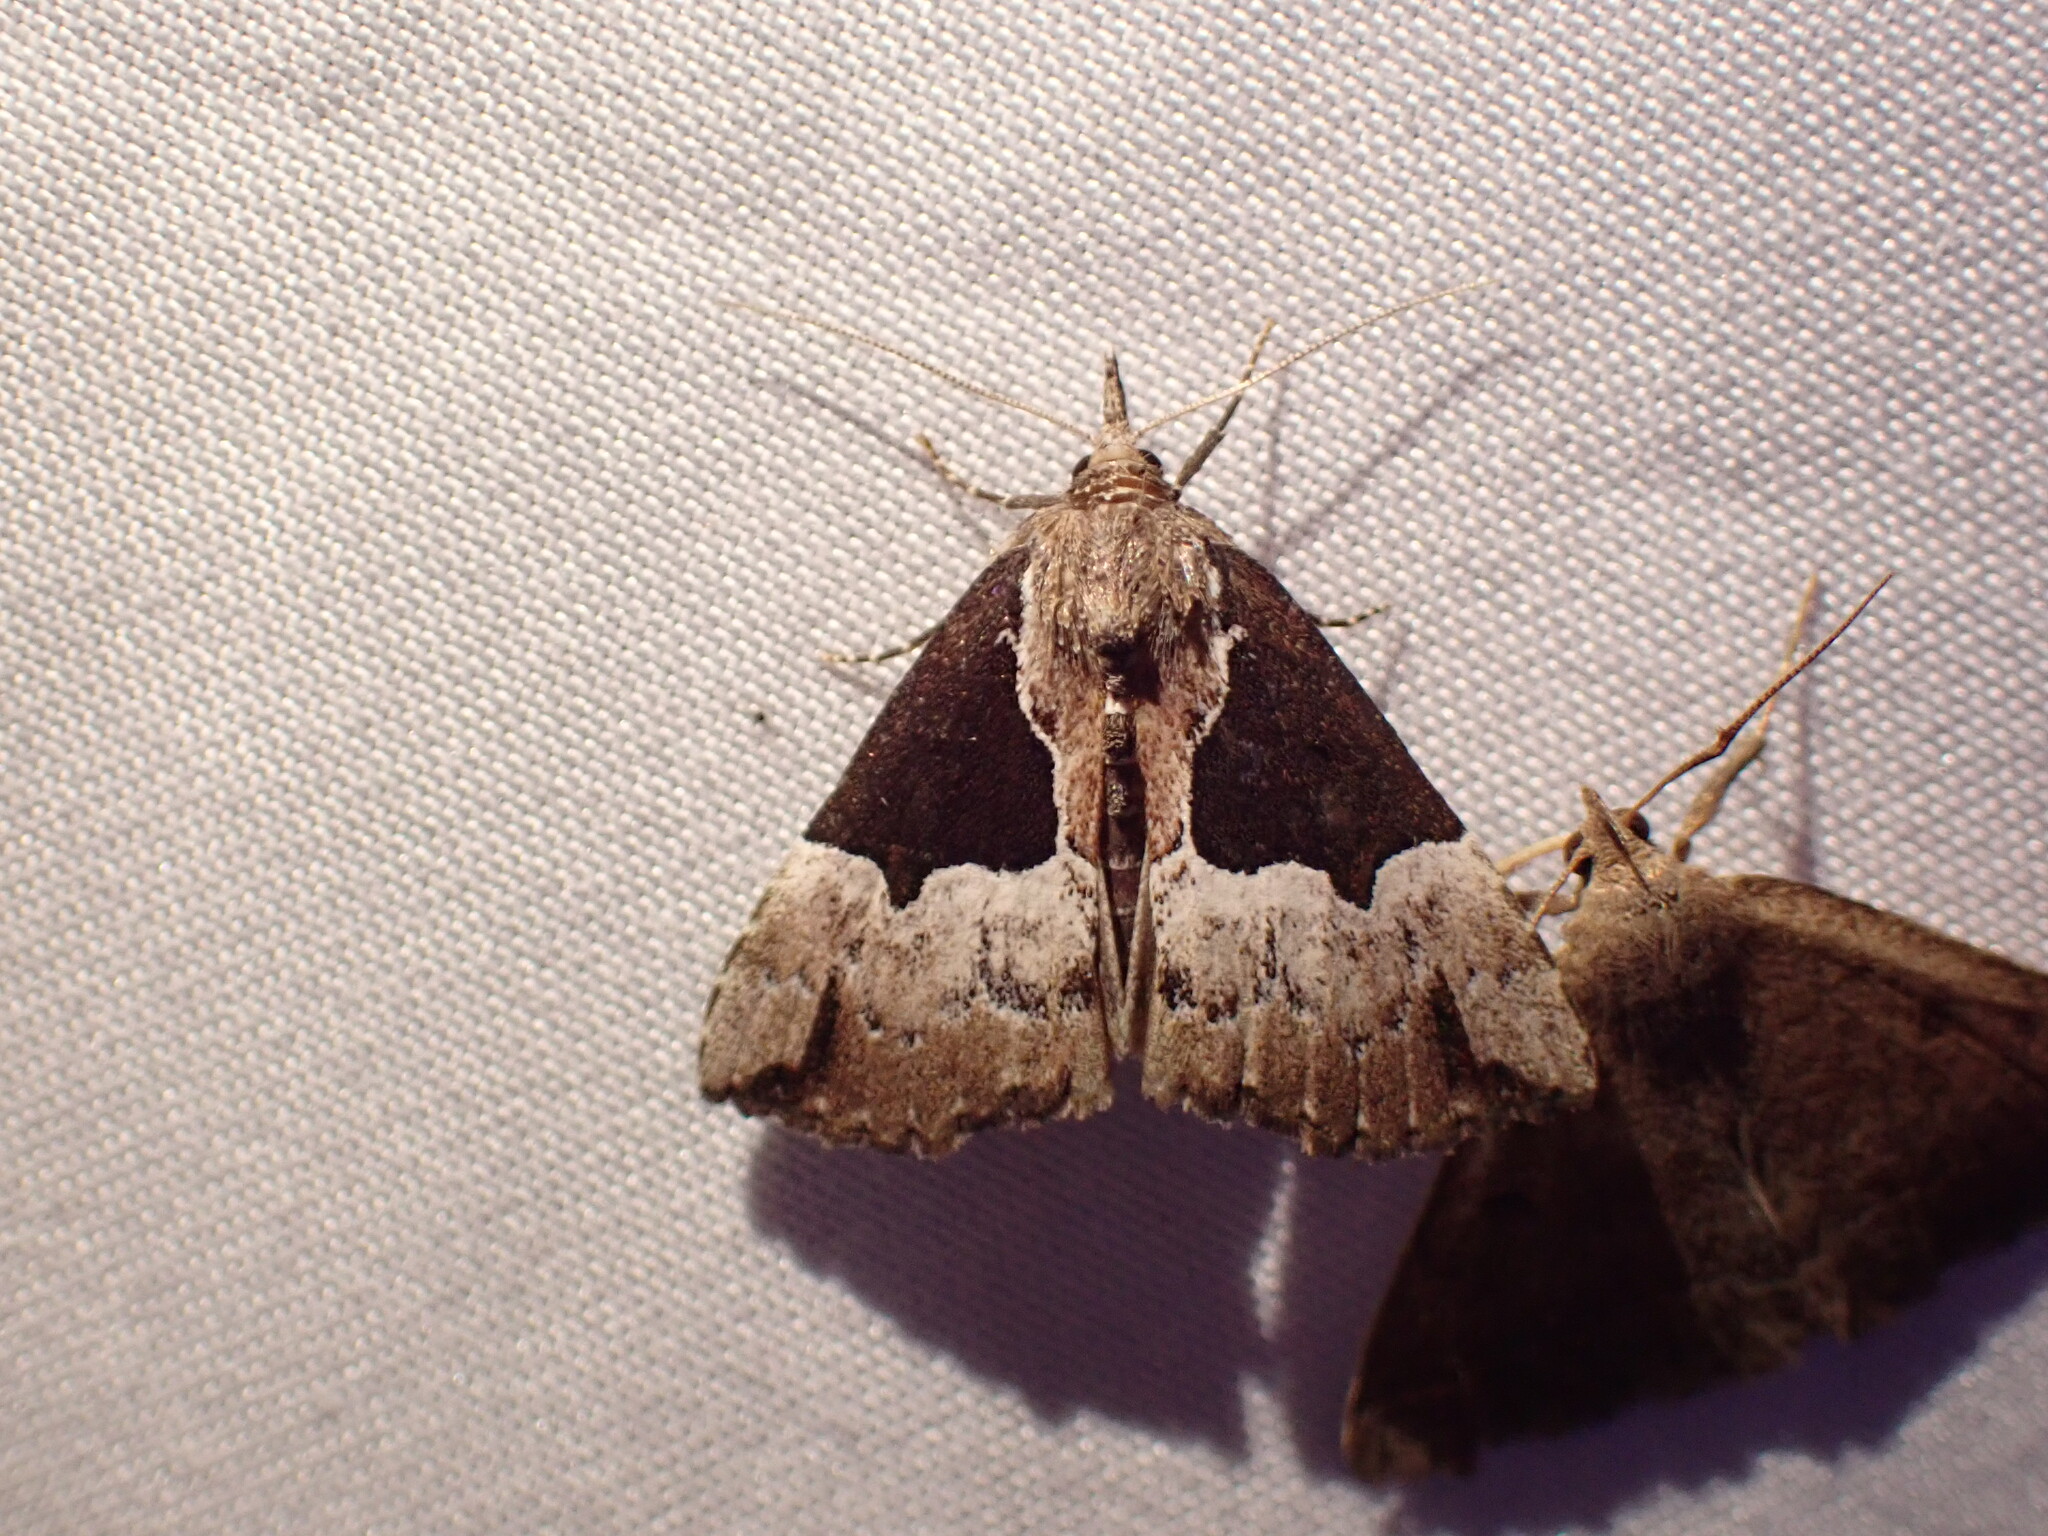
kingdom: Animalia
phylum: Arthropoda
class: Insecta
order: Lepidoptera
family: Erebidae
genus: Hypena
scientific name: Hypena bijugalis
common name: Dimorphic bomolocha moth
